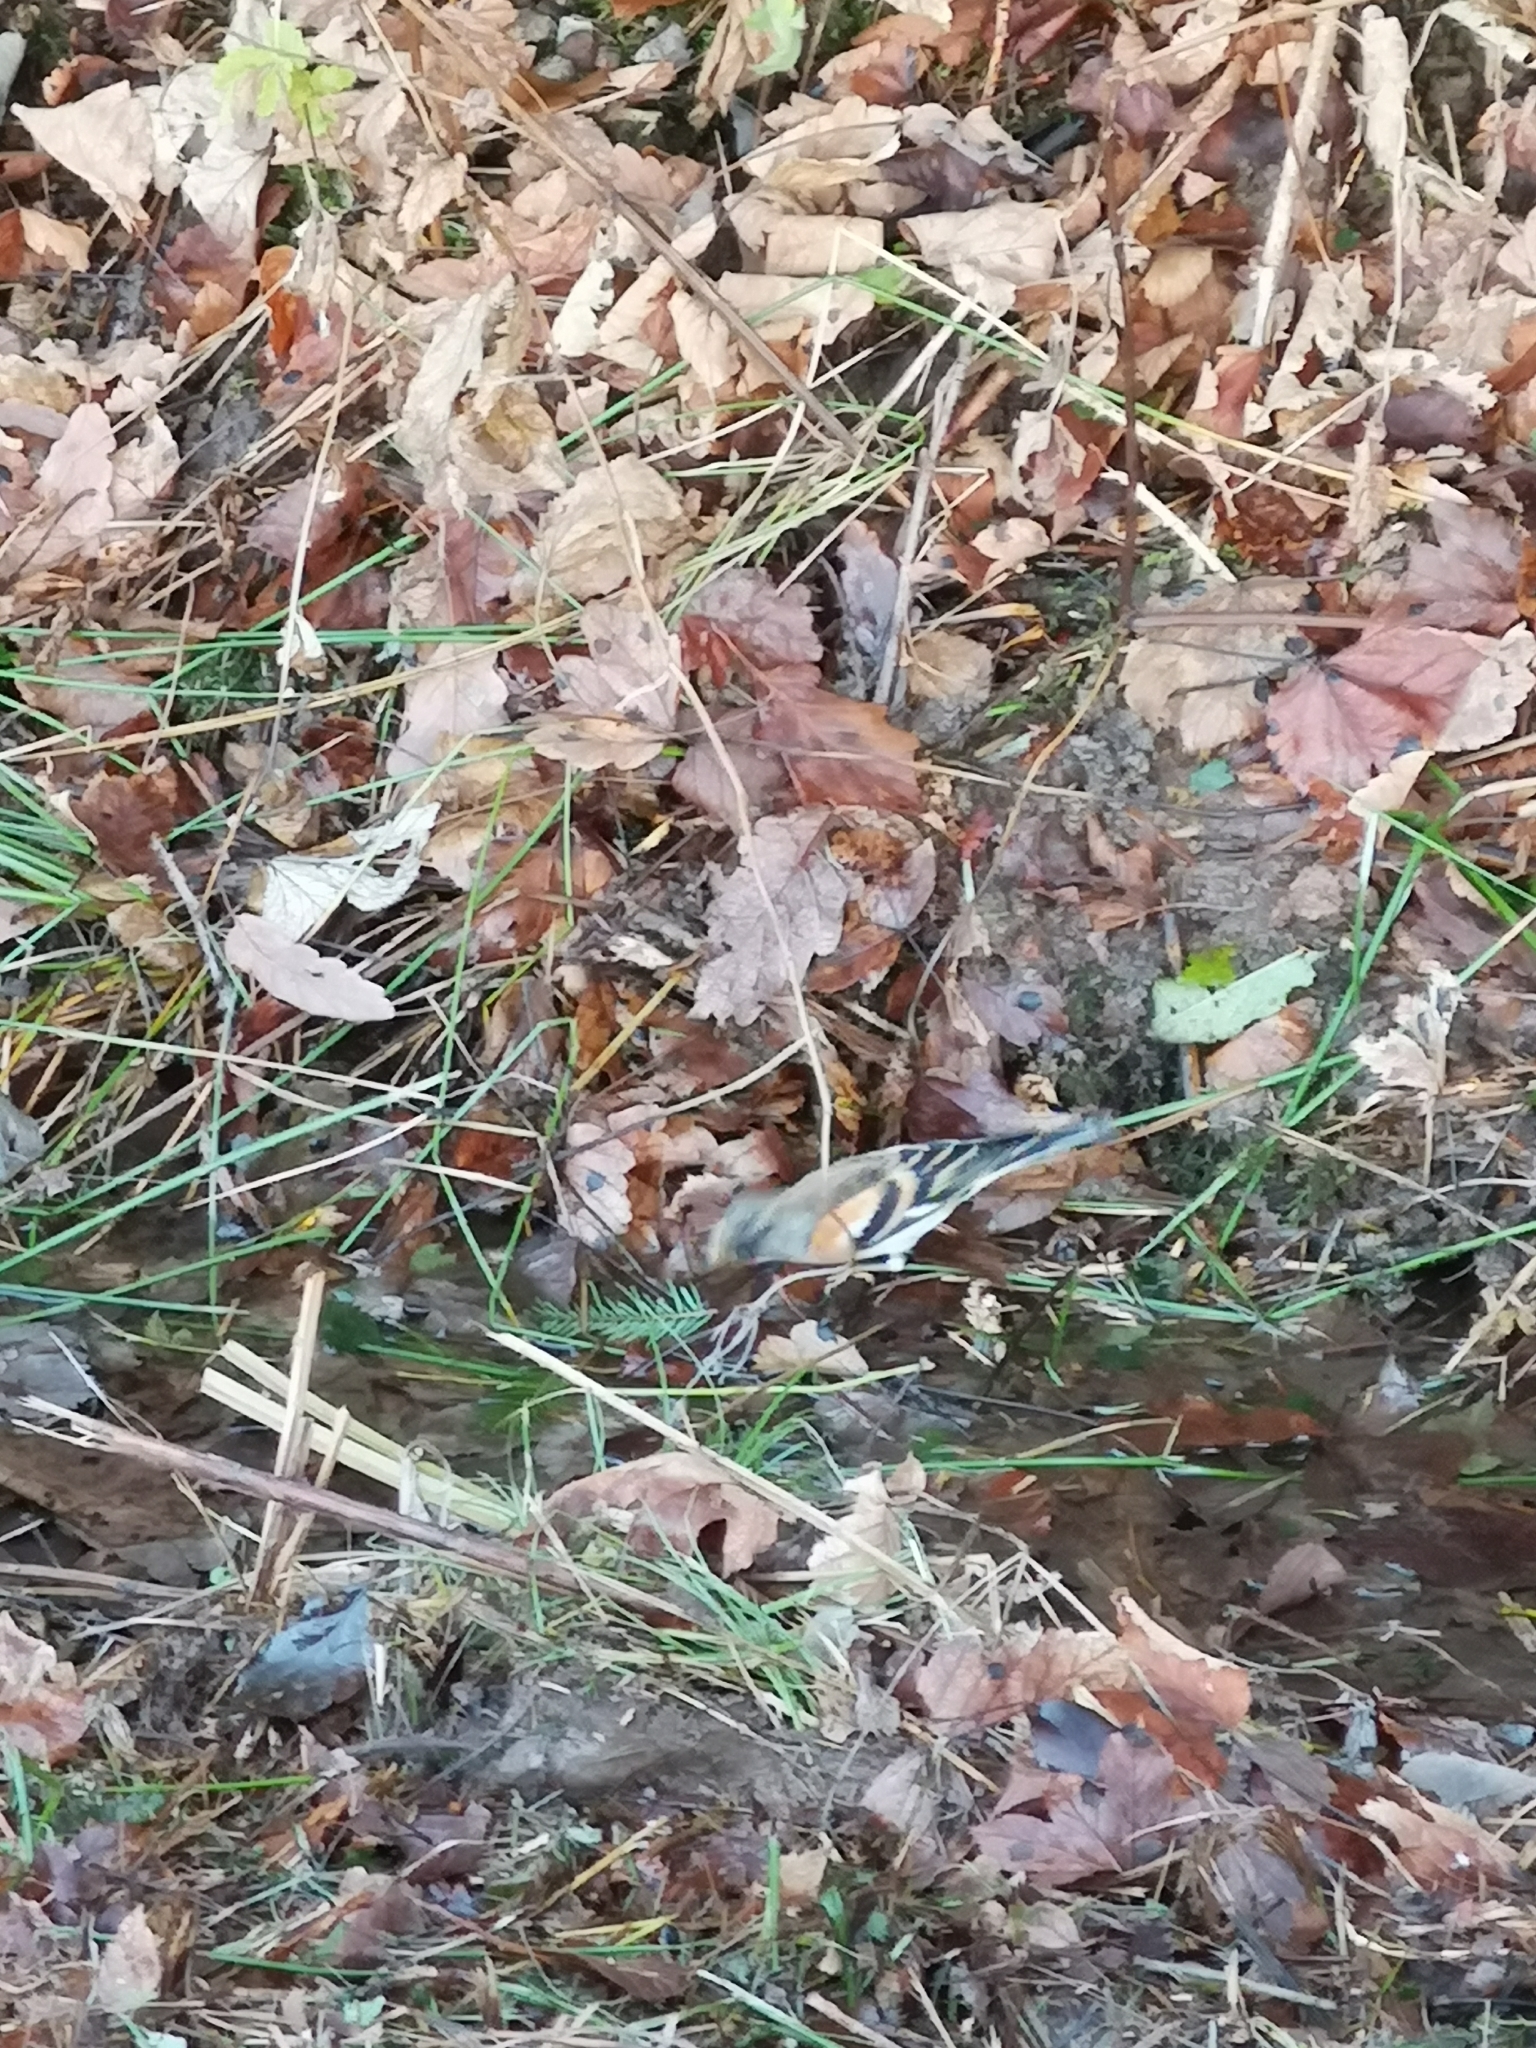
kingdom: Animalia
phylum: Chordata
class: Aves
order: Passeriformes
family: Fringillidae
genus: Fringilla
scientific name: Fringilla montifringilla
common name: Brambling
